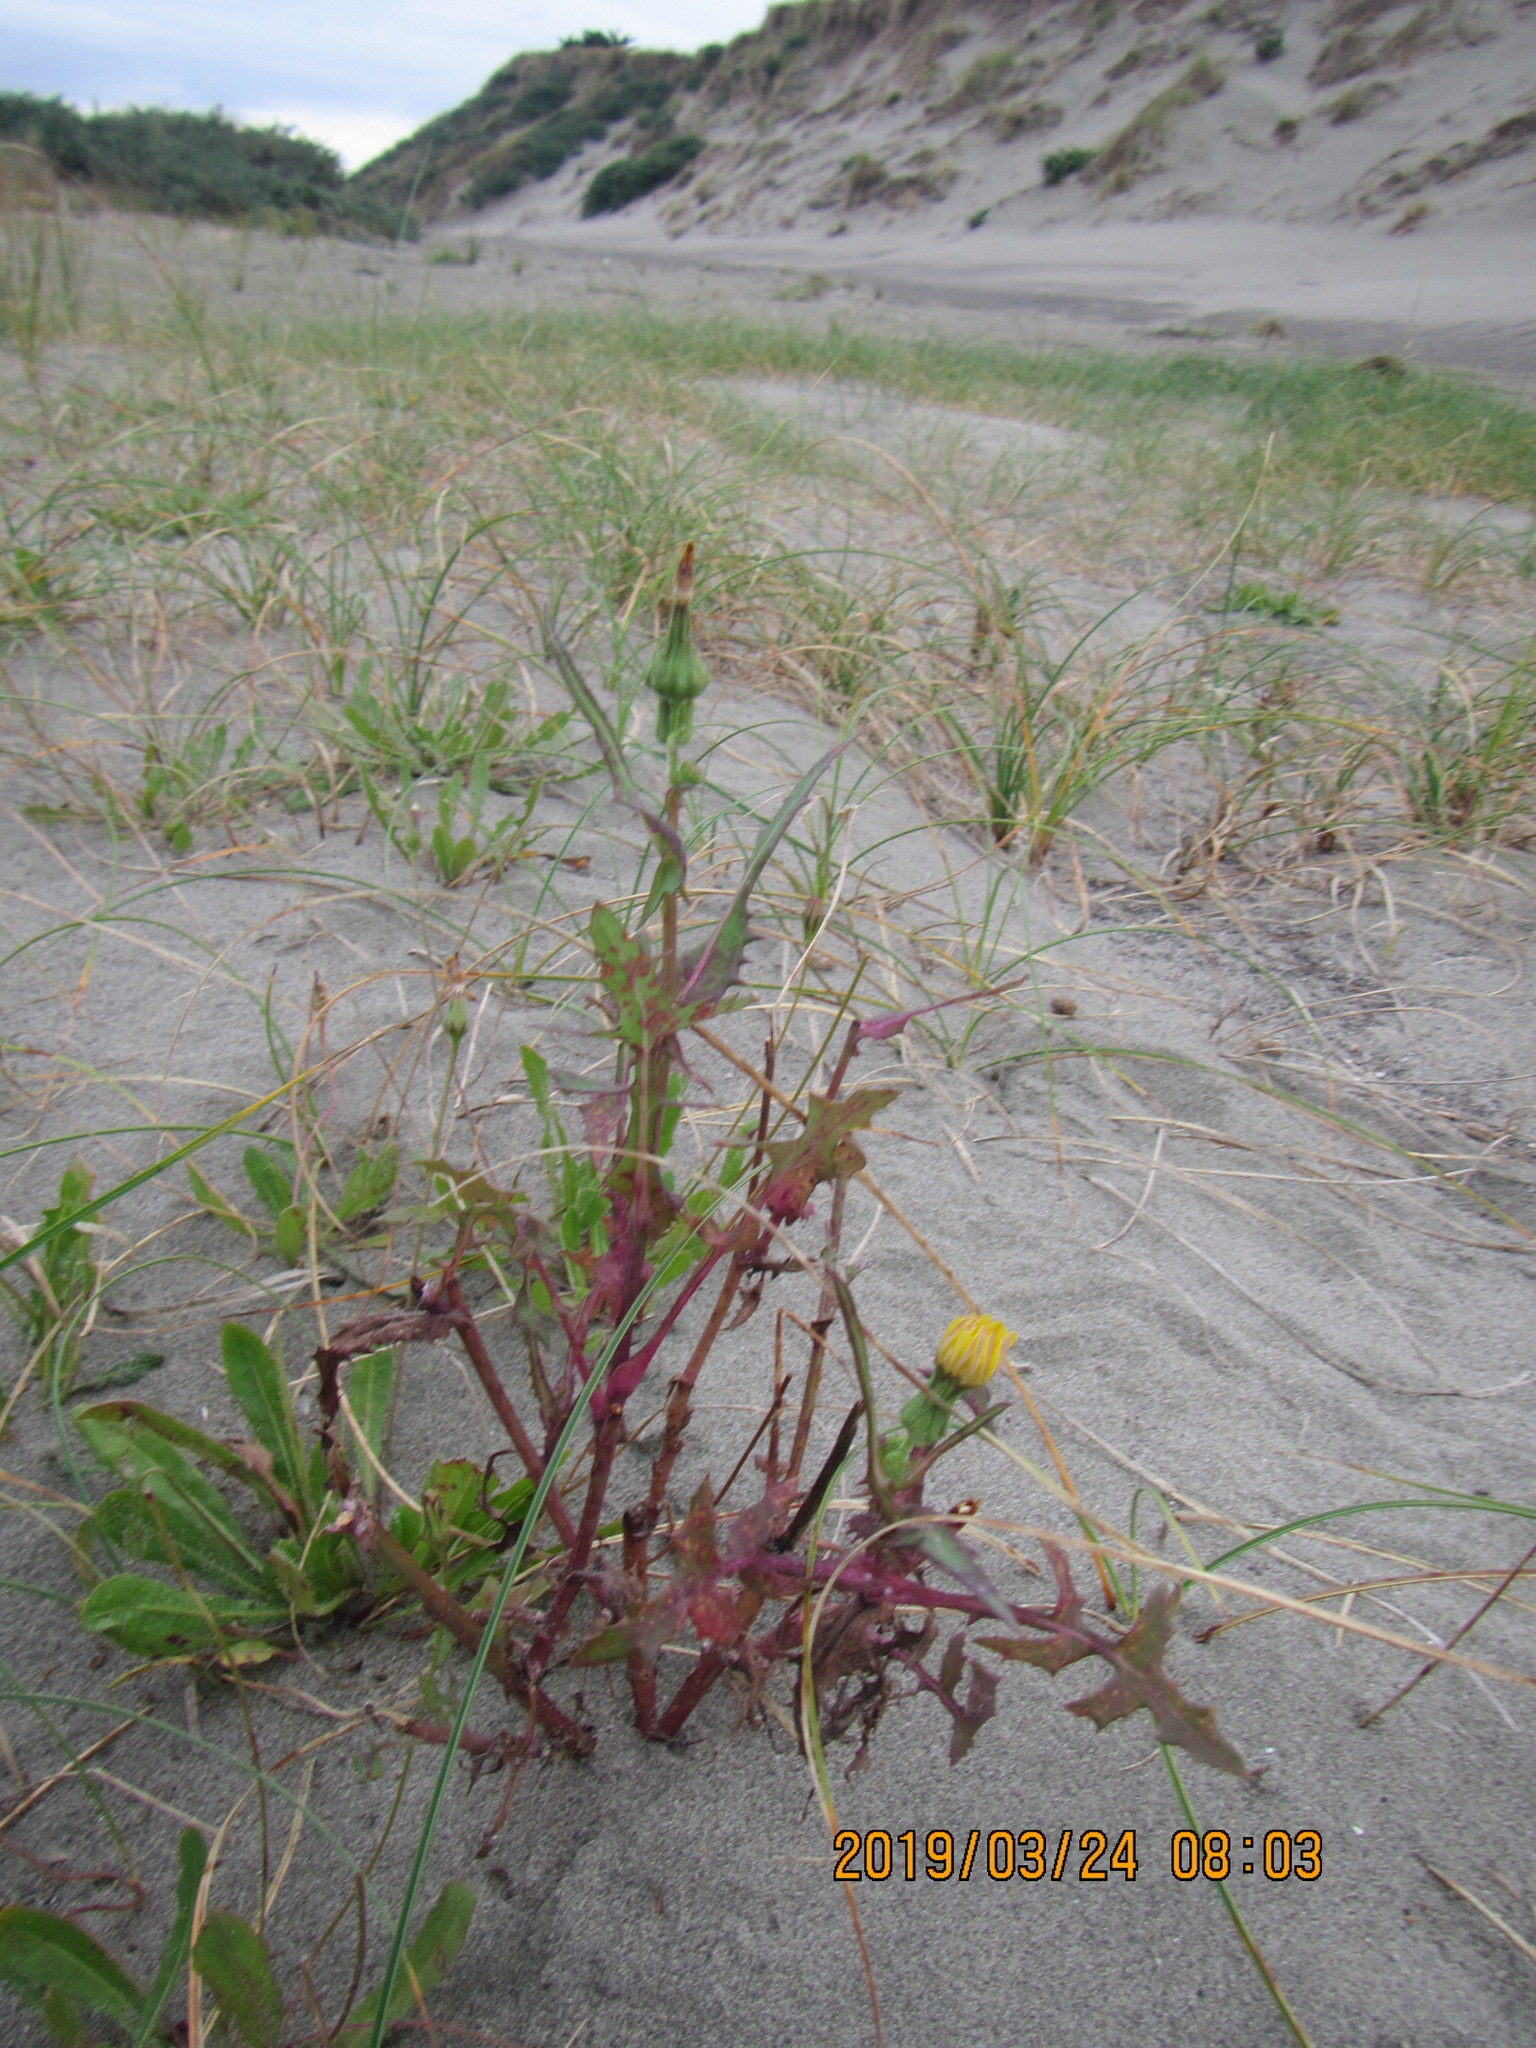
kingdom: Plantae
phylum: Tracheophyta
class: Magnoliopsida
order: Asterales
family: Asteraceae
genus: Sonchus
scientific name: Sonchus oleraceus
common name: Common sowthistle
